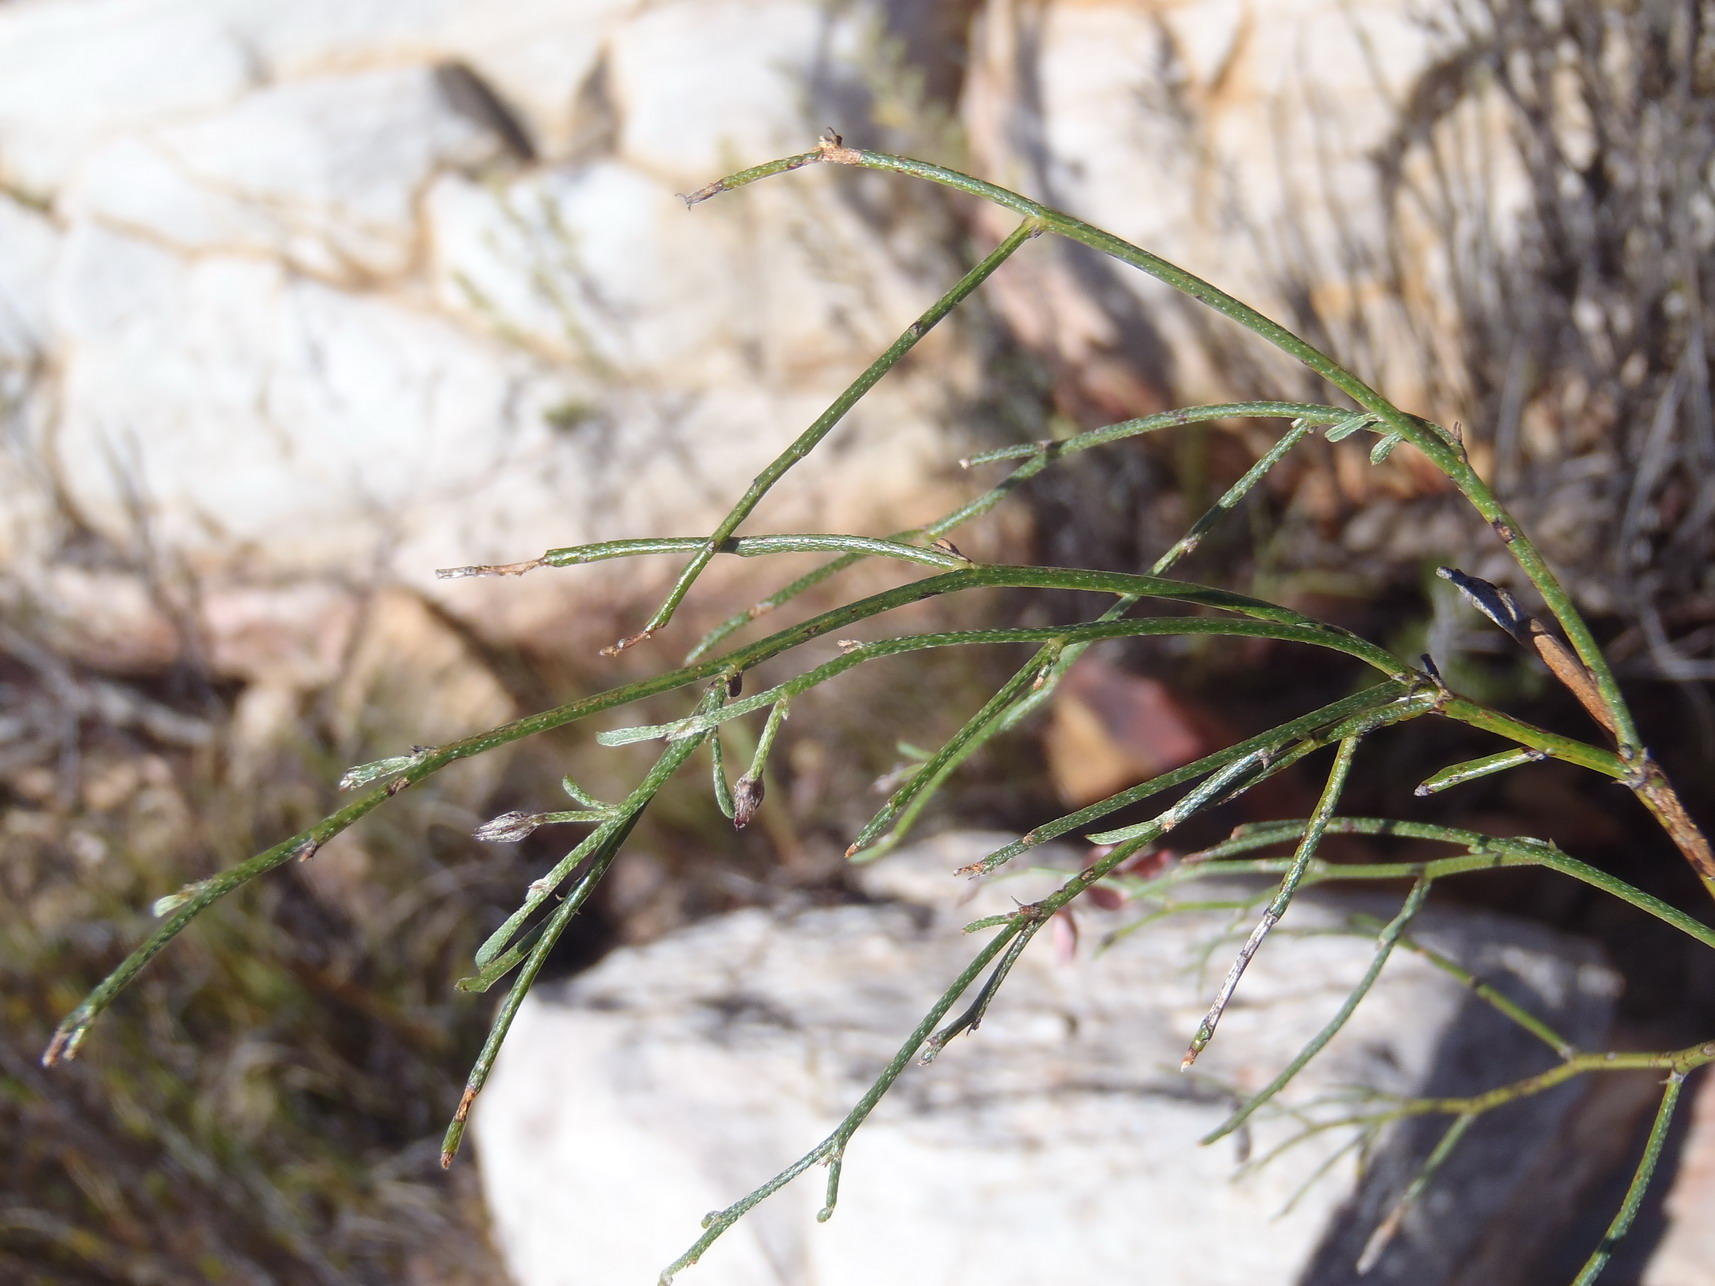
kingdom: Plantae
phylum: Tracheophyta
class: Magnoliopsida
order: Fabales
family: Fabaceae
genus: Indigofera
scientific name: Indigofera leptocarpa
